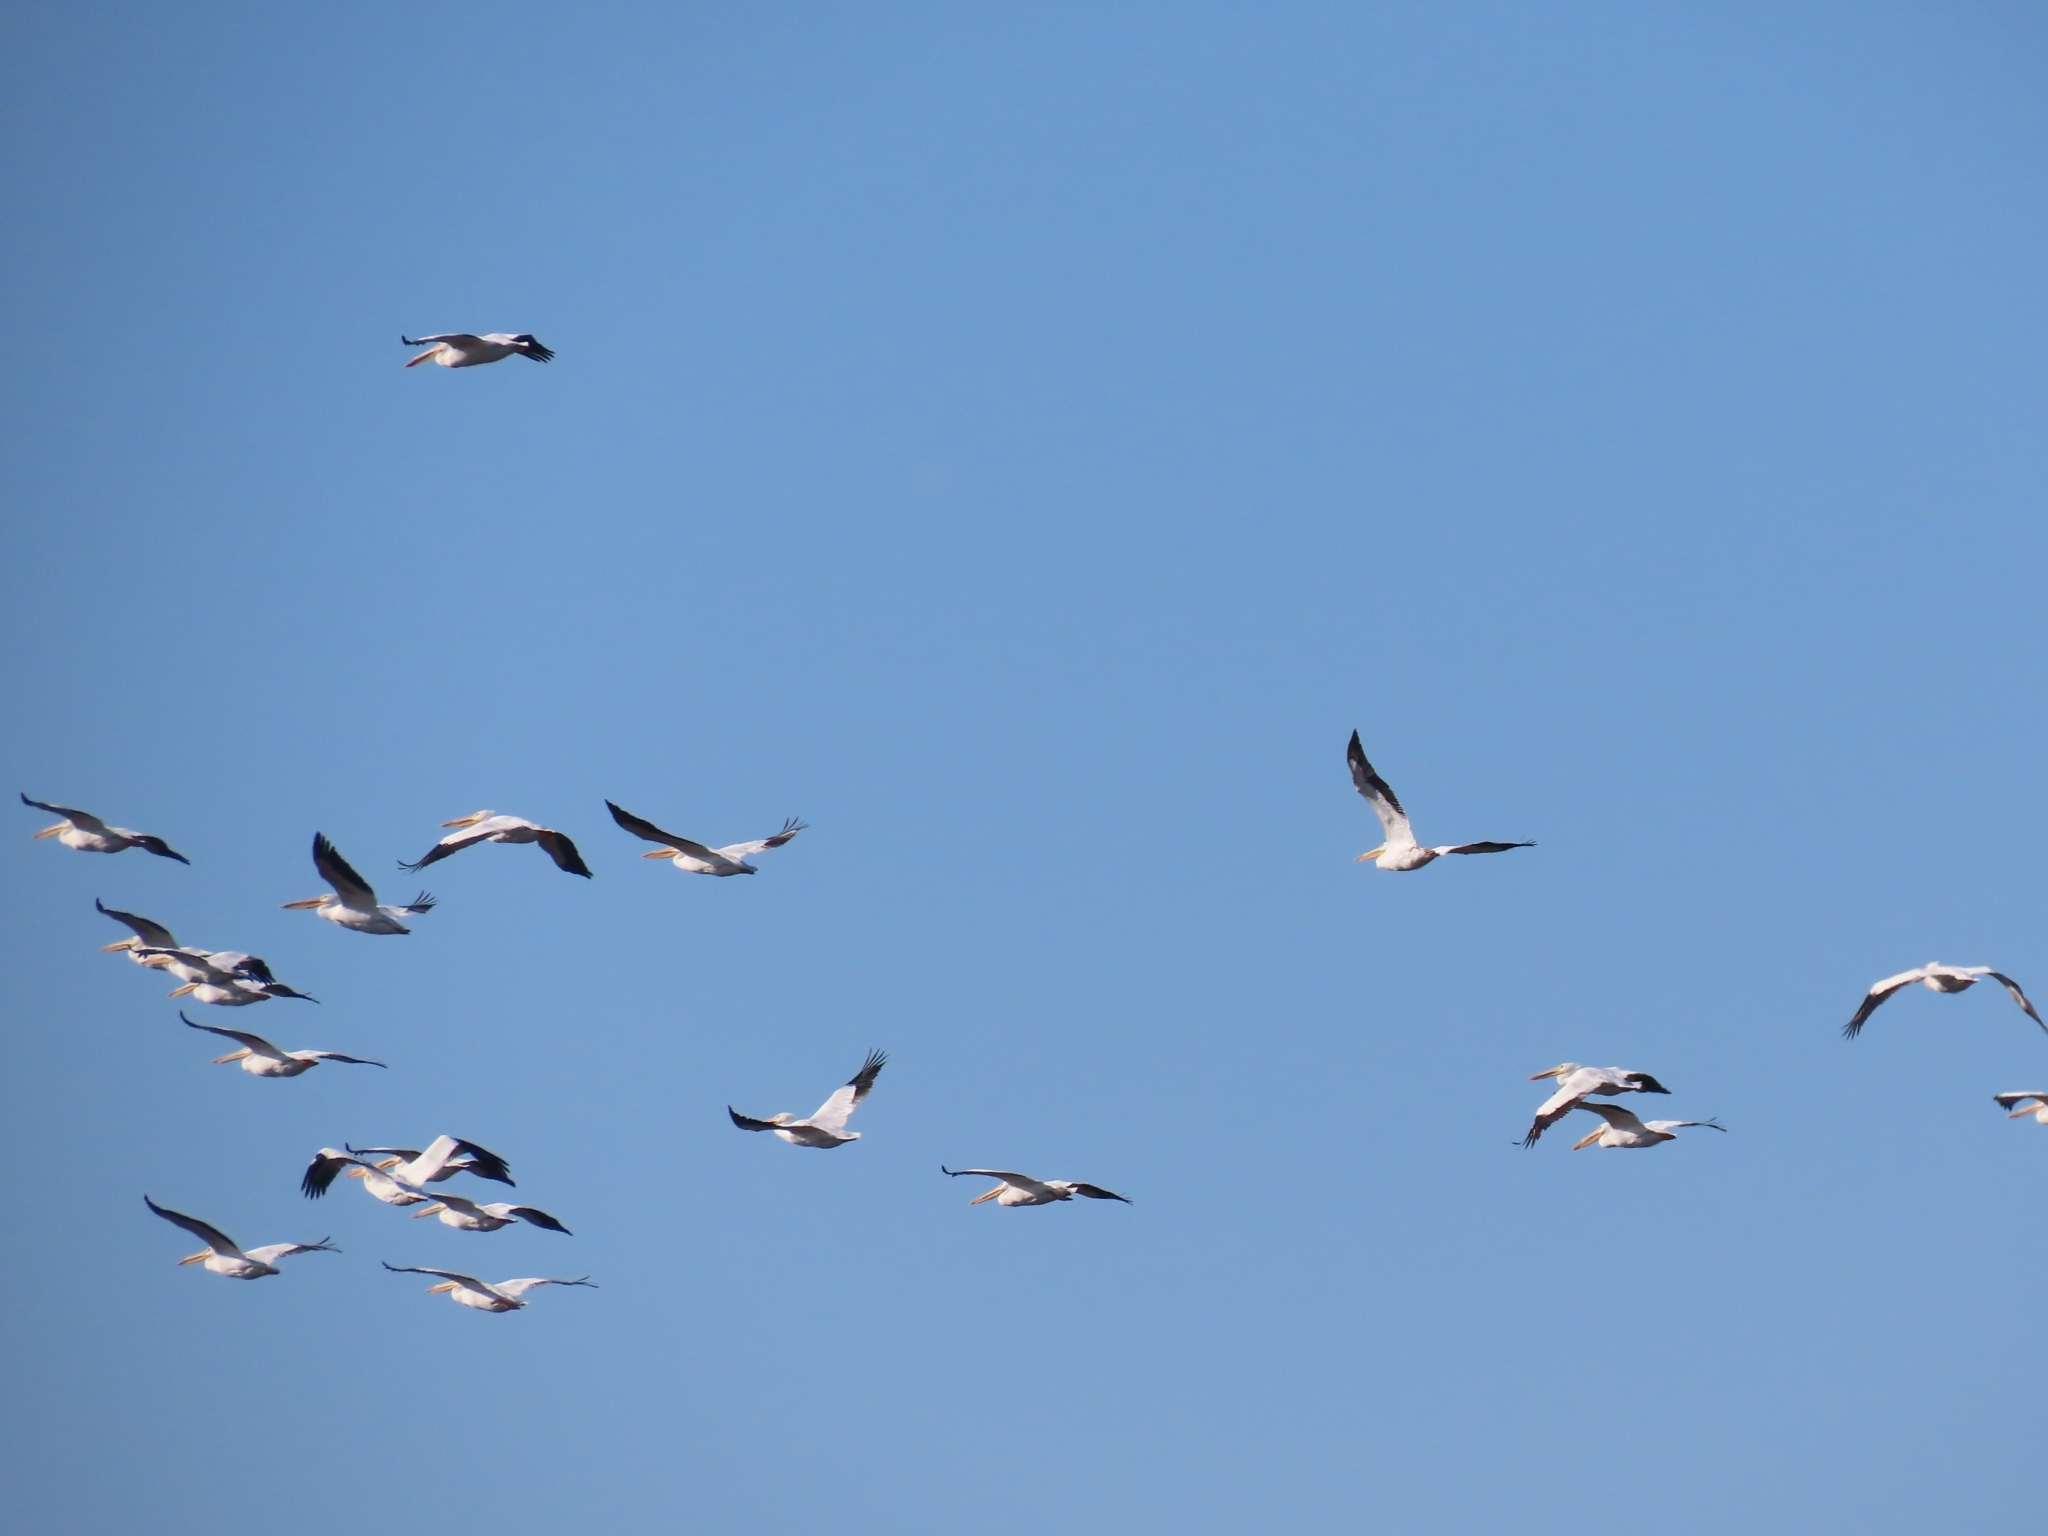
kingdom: Animalia
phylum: Chordata
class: Aves
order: Pelecaniformes
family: Pelecanidae
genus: Pelecanus
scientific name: Pelecanus erythrorhynchos
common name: American white pelican
